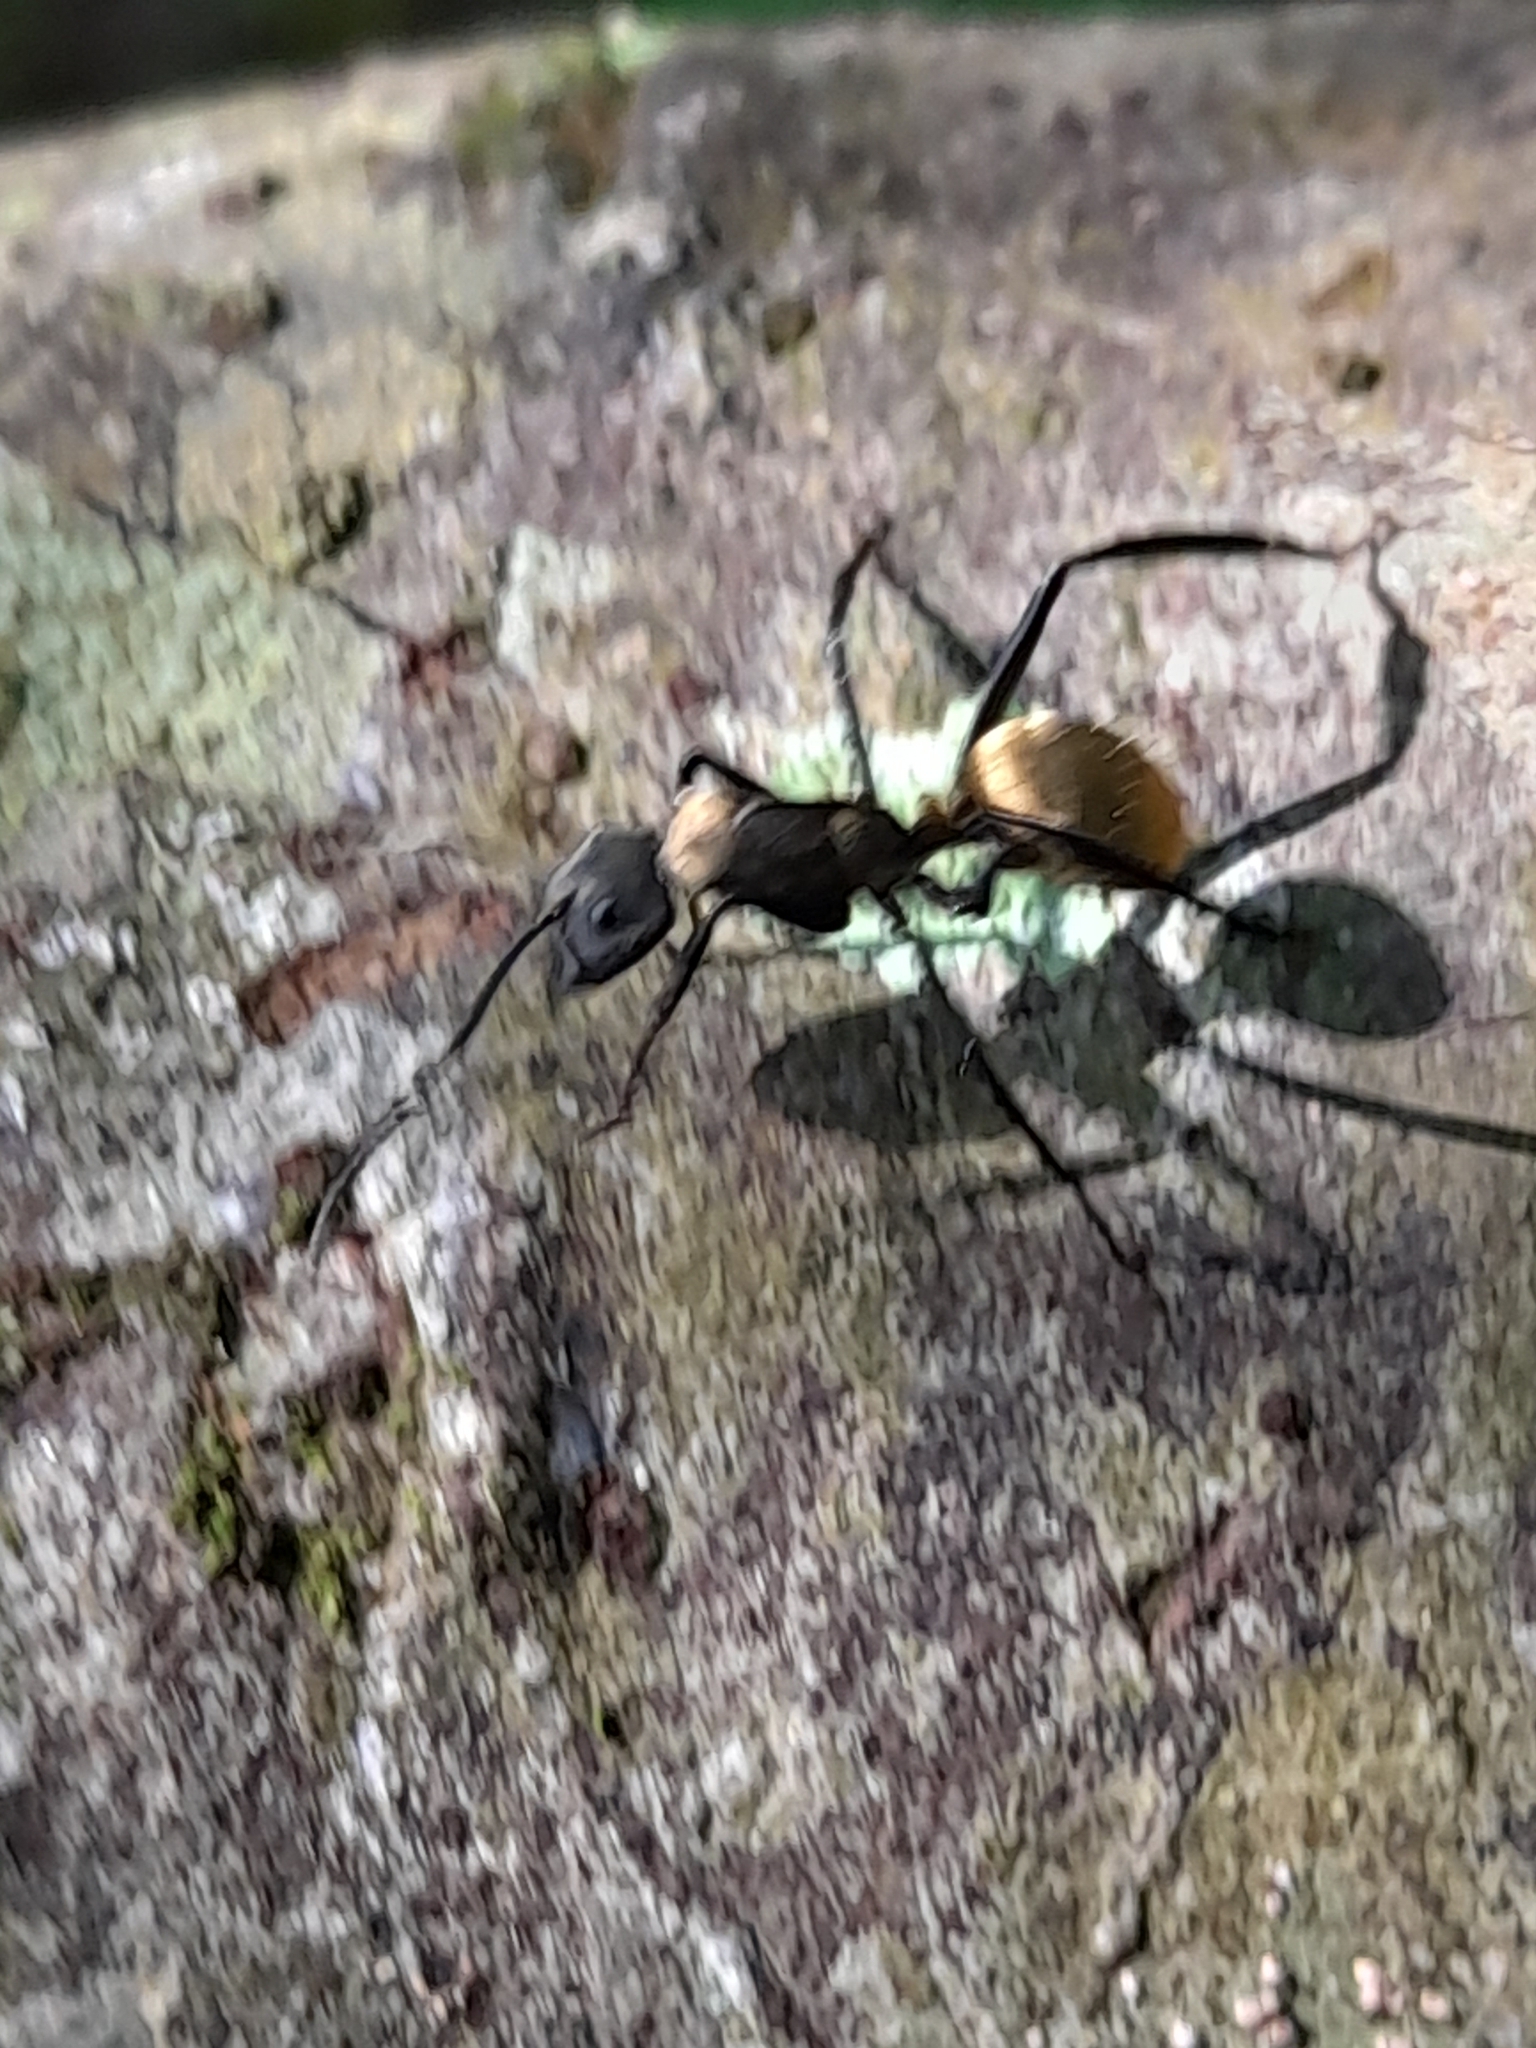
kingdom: Animalia
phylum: Arthropoda
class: Insecta
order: Hymenoptera
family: Formicidae
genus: Camponotus
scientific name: Camponotus sericeiventris
